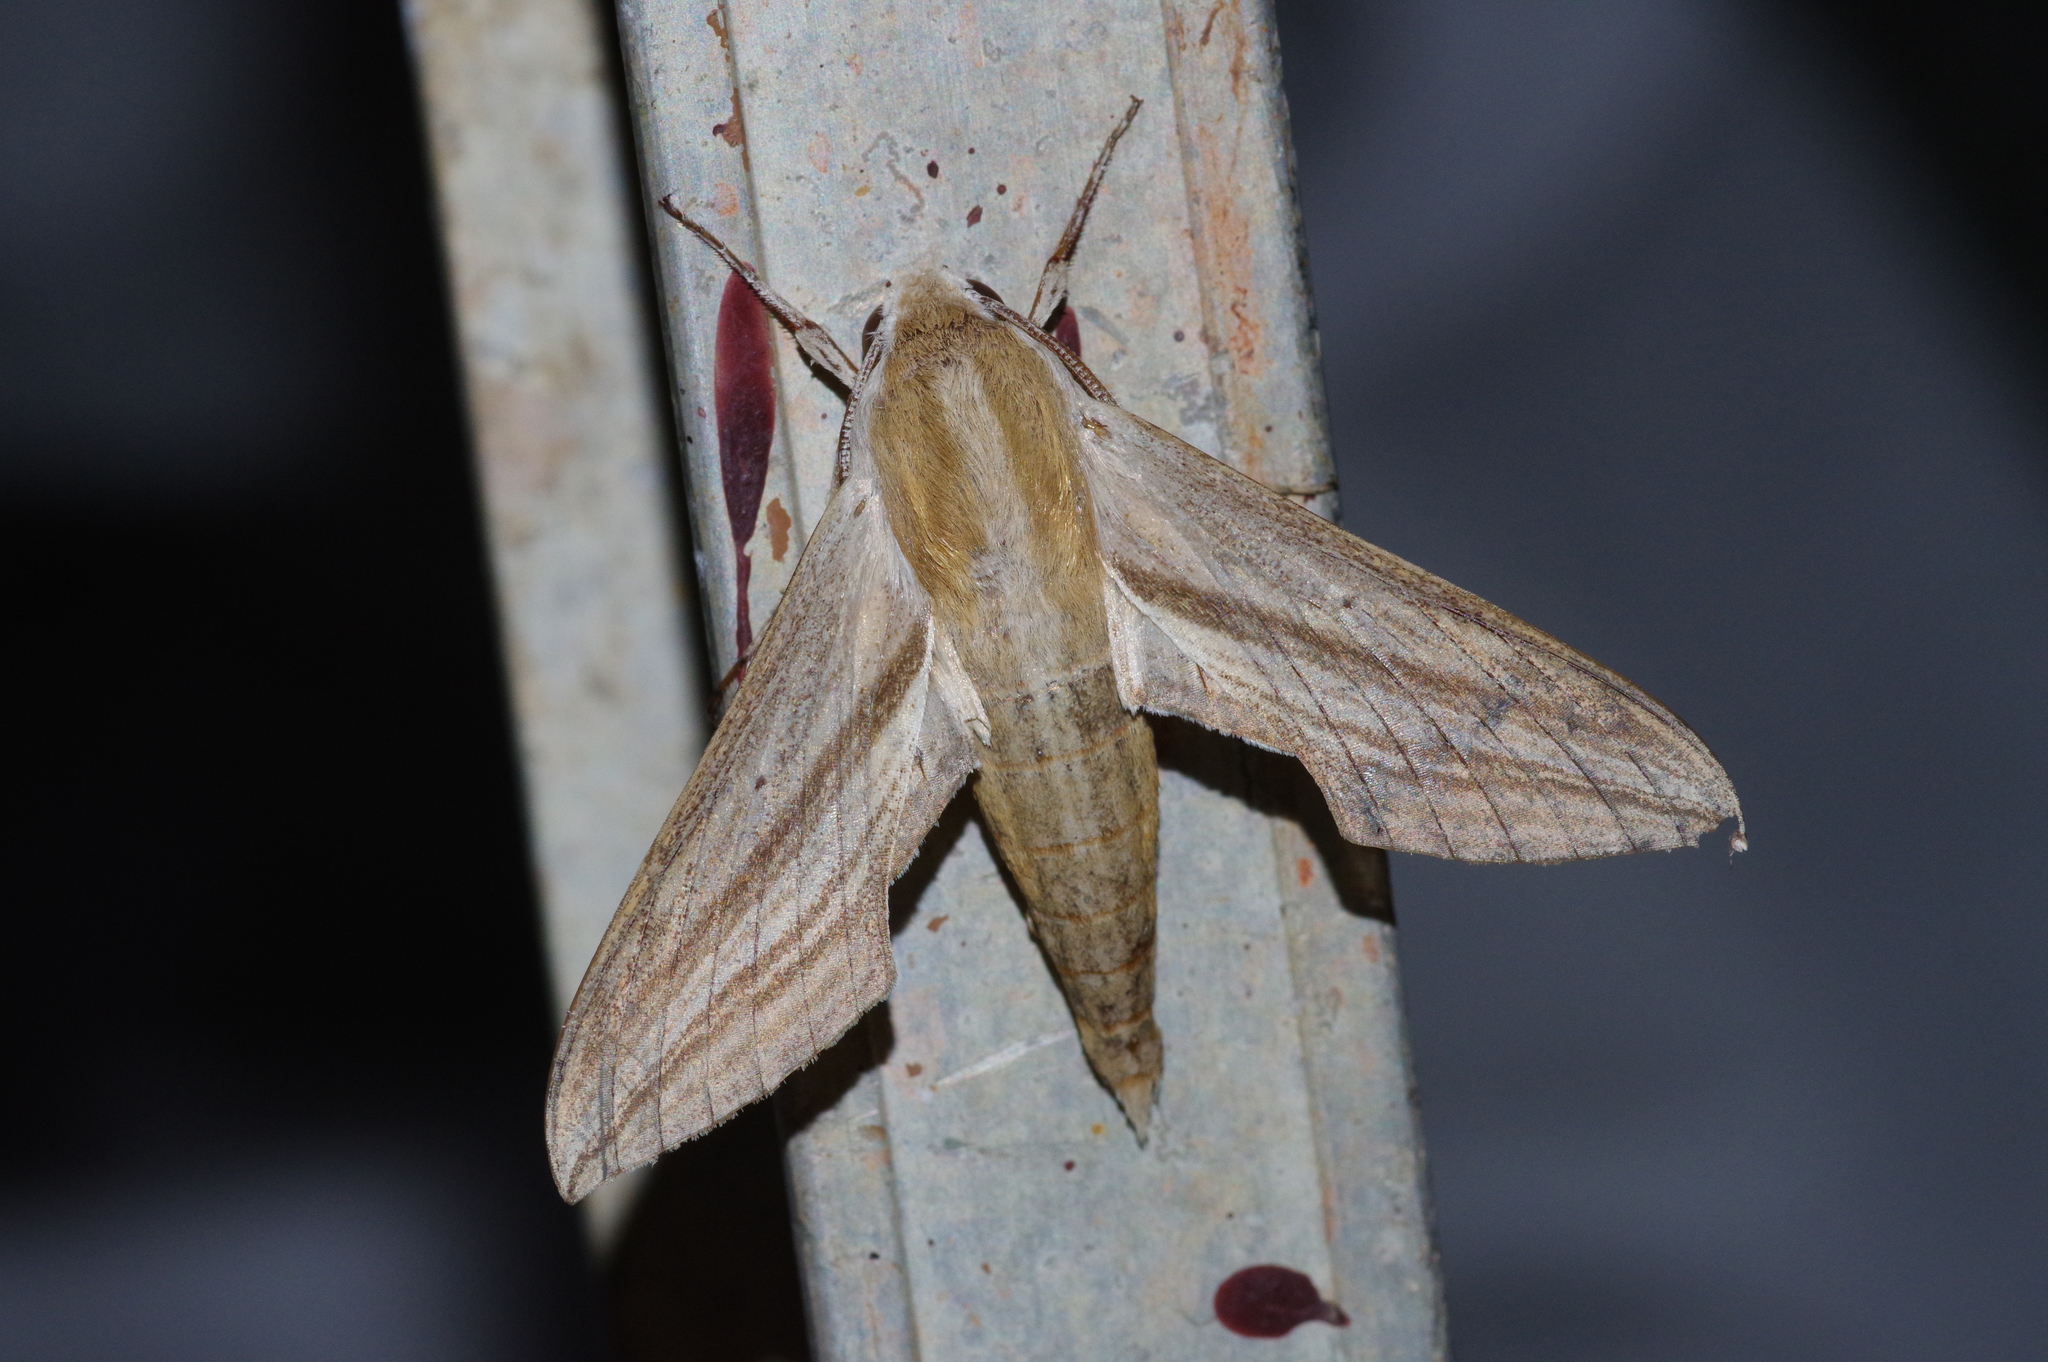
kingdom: Animalia
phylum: Arthropoda
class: Insecta
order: Lepidoptera
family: Sphingidae
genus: Theretra
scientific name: Theretra japonica
